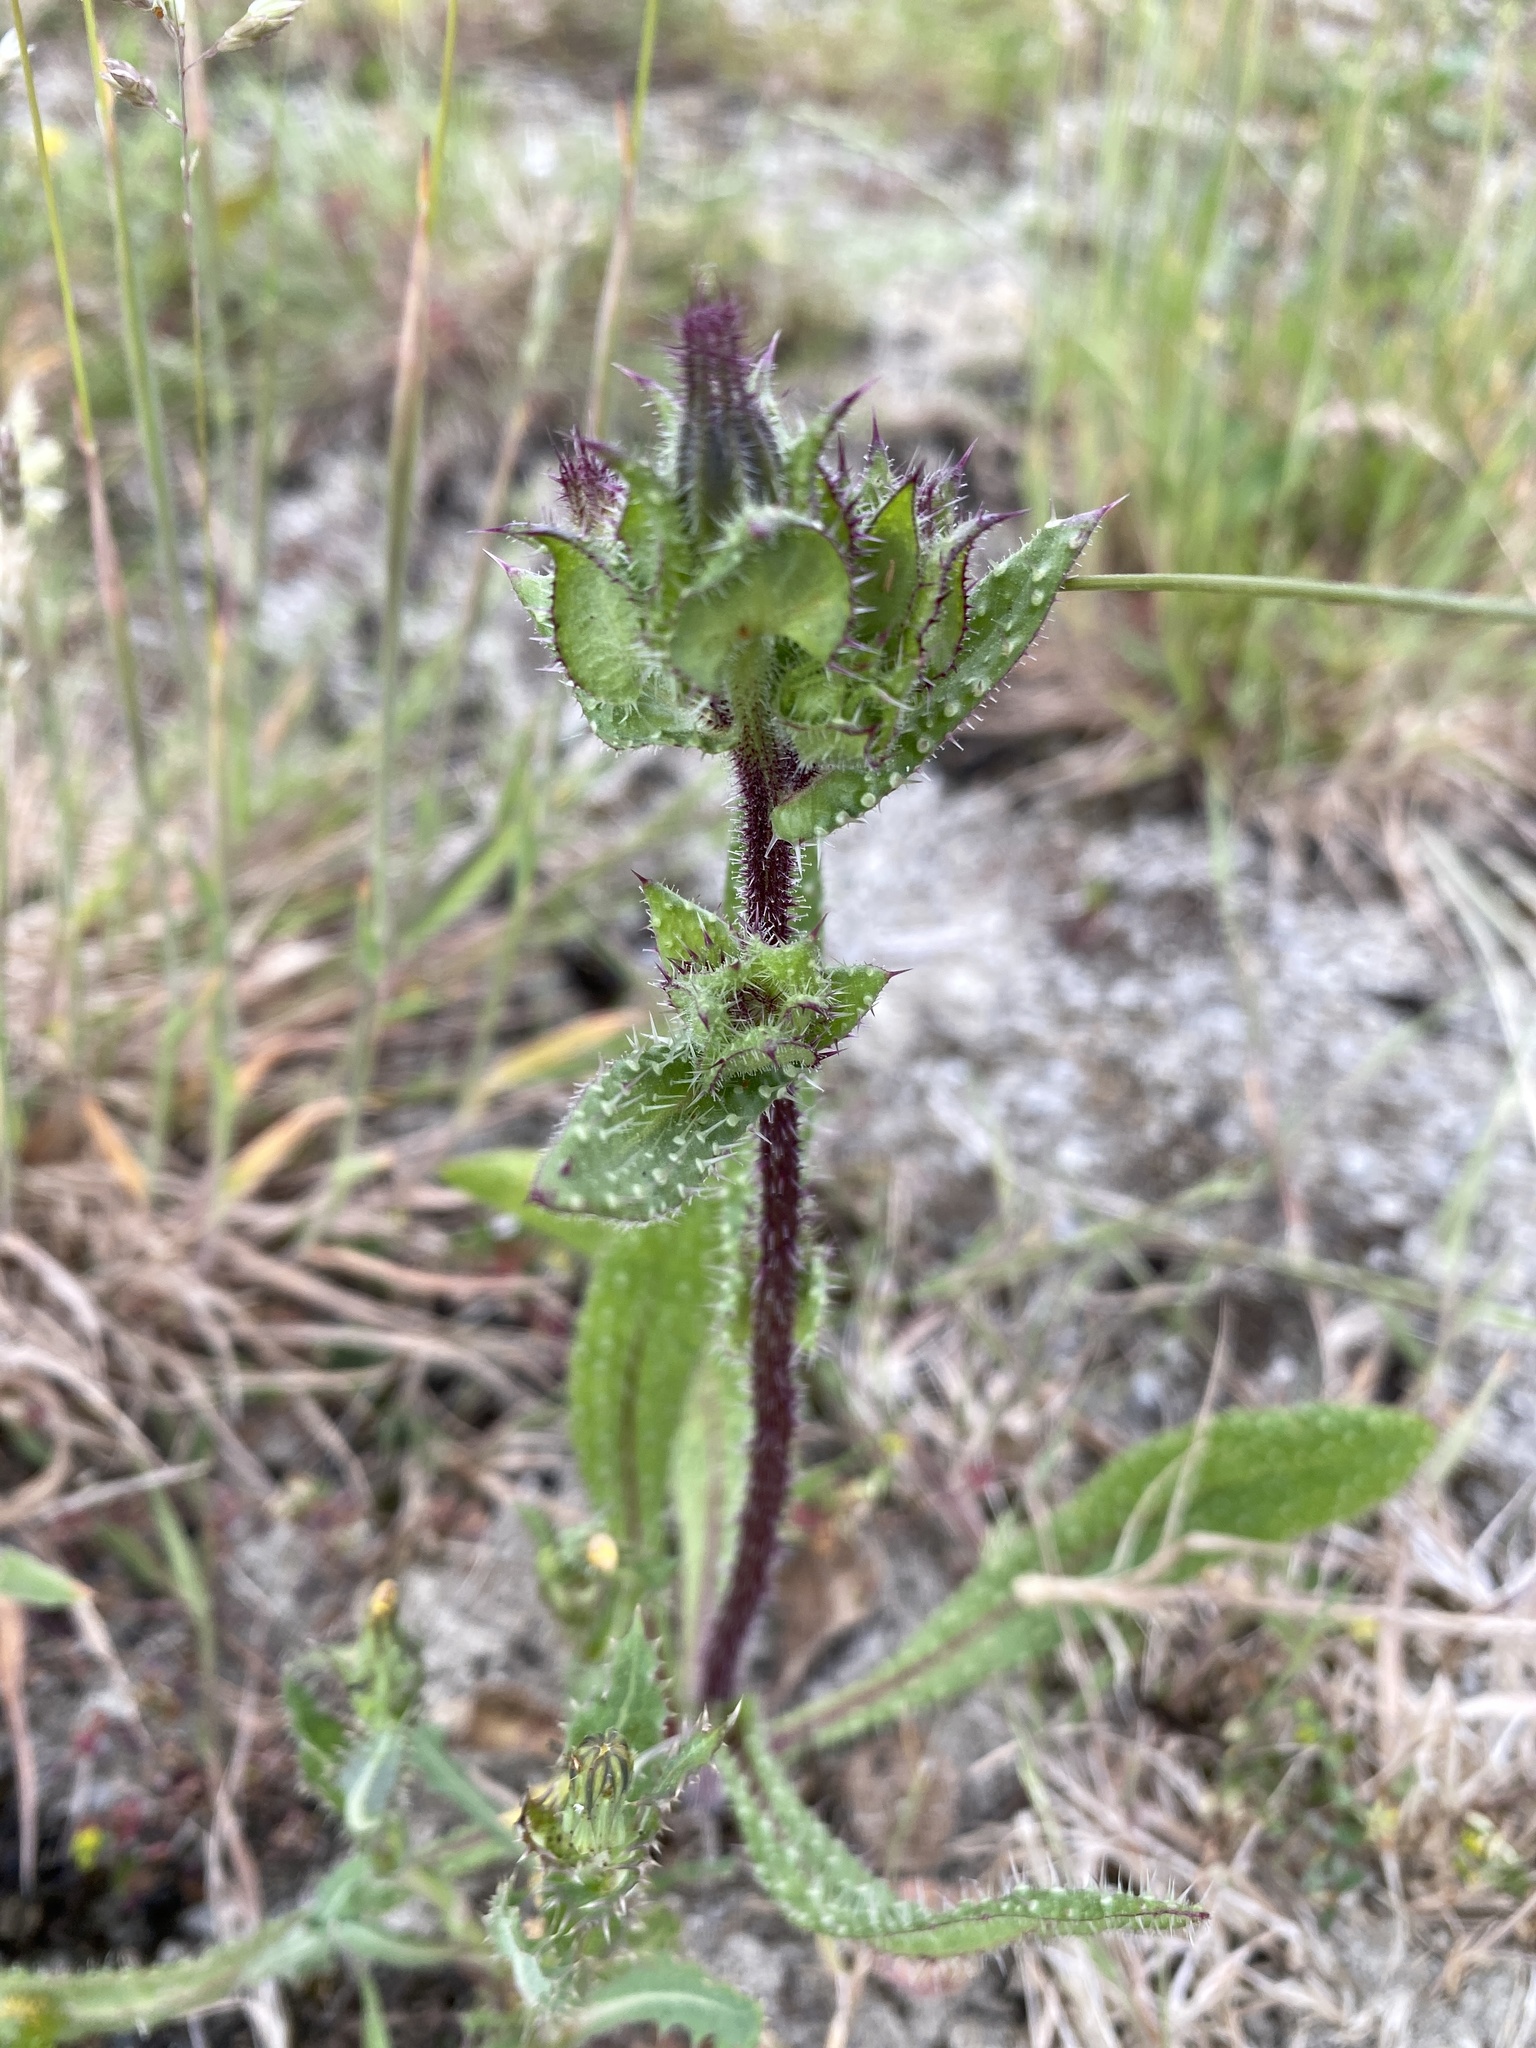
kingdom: Plantae
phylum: Tracheophyta
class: Magnoliopsida
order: Asterales
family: Asteraceae
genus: Helminthotheca
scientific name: Helminthotheca echioides
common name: Ox-tongue
